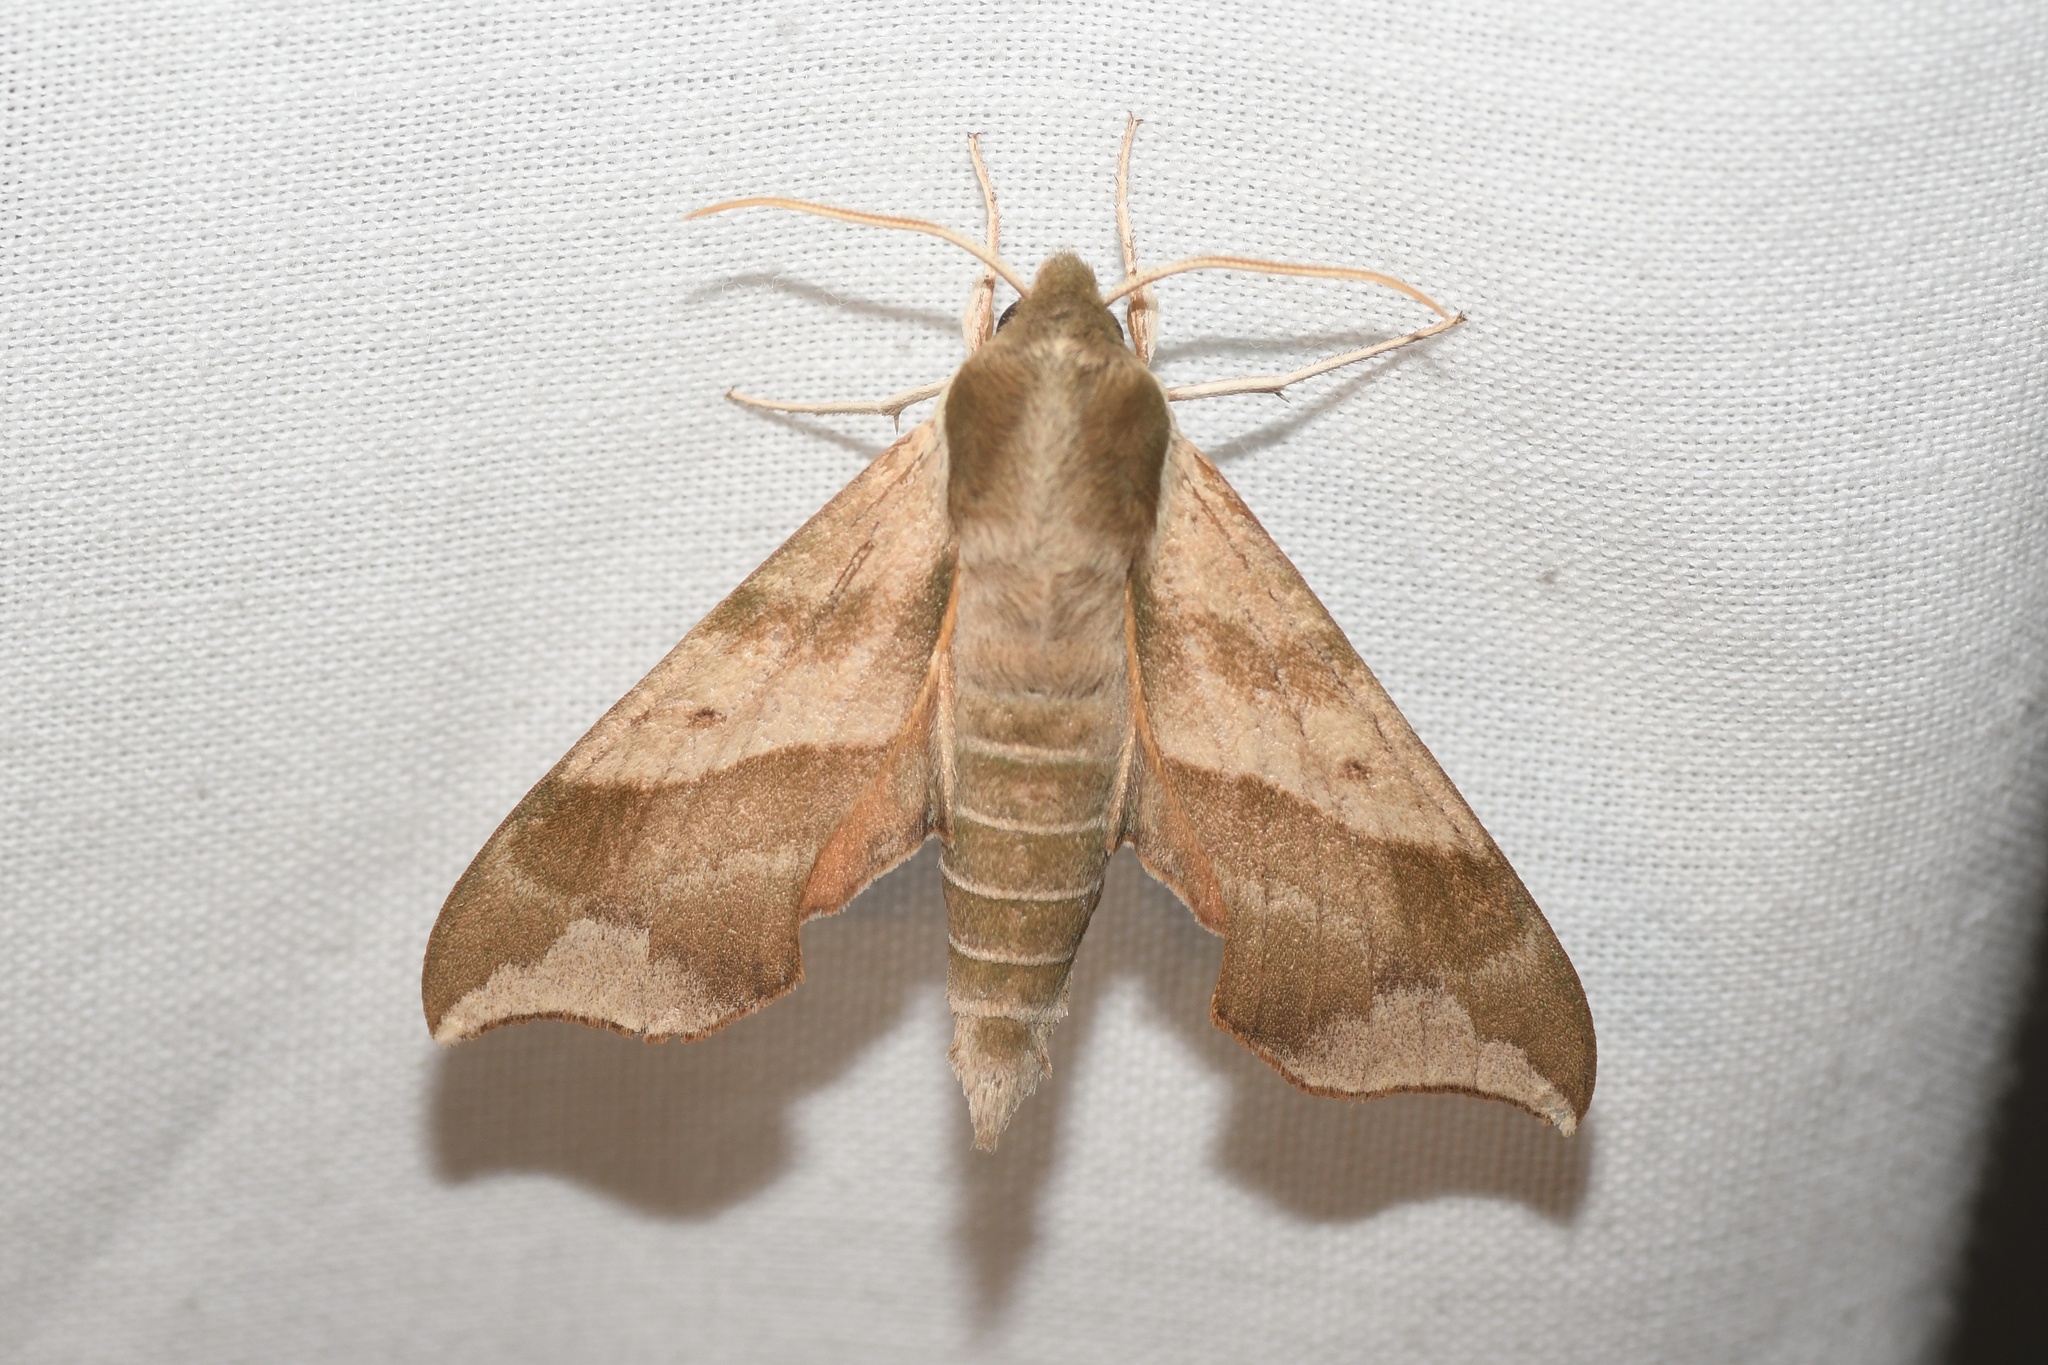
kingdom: Animalia
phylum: Arthropoda
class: Insecta
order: Lepidoptera
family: Sphingidae
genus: Darapsa
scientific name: Darapsa myron
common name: Hog sphinx
